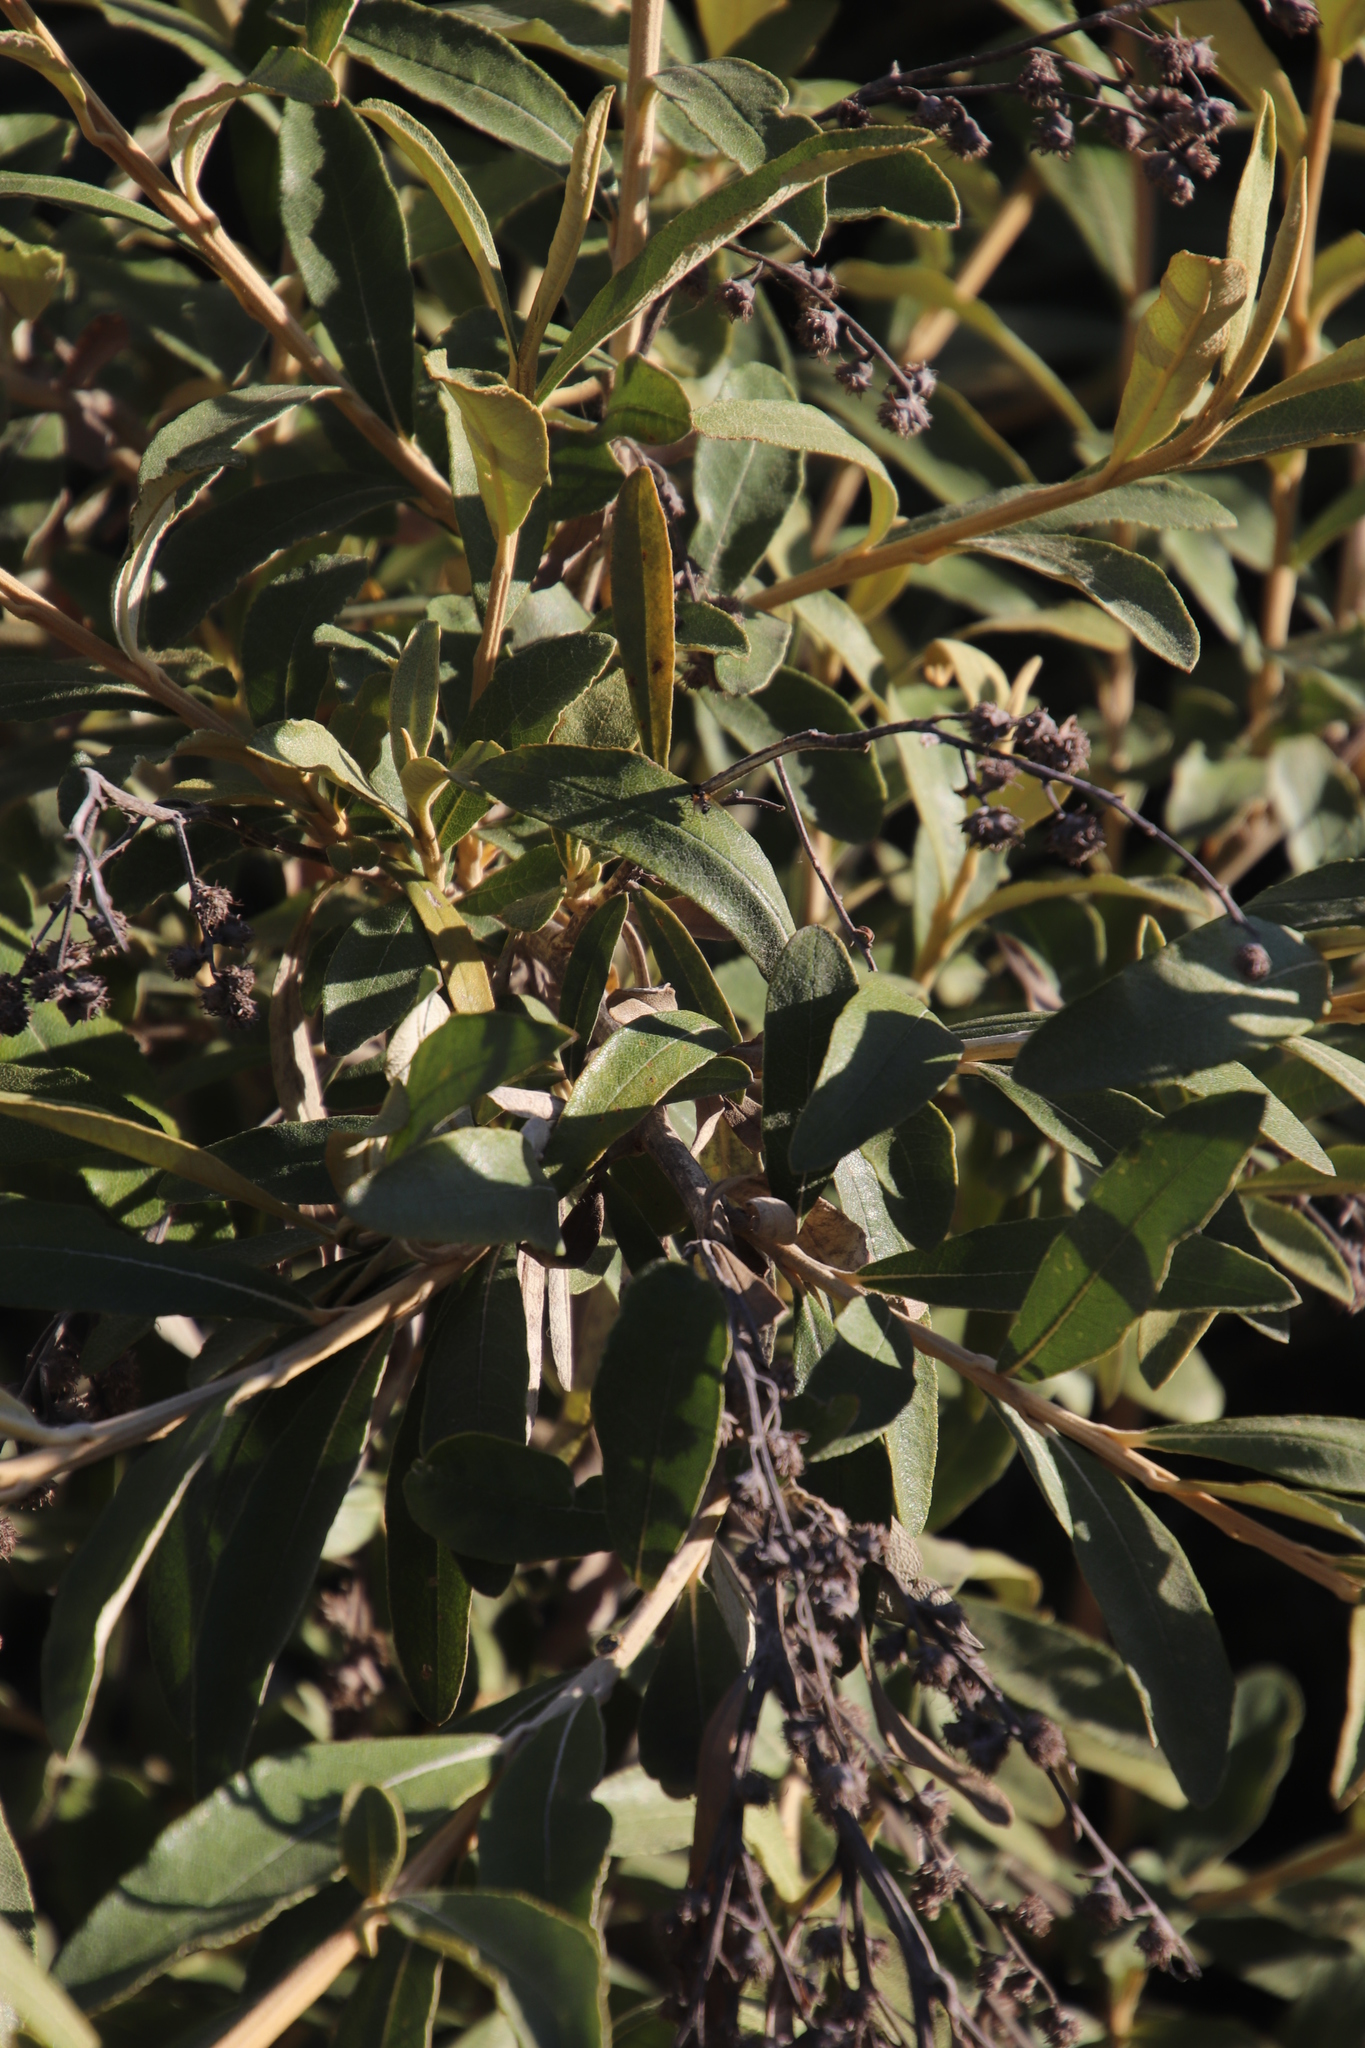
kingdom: Plantae
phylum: Tracheophyta
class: Magnoliopsida
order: Asterales
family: Asteraceae
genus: Tarchonanthus
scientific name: Tarchonanthus littoralis
